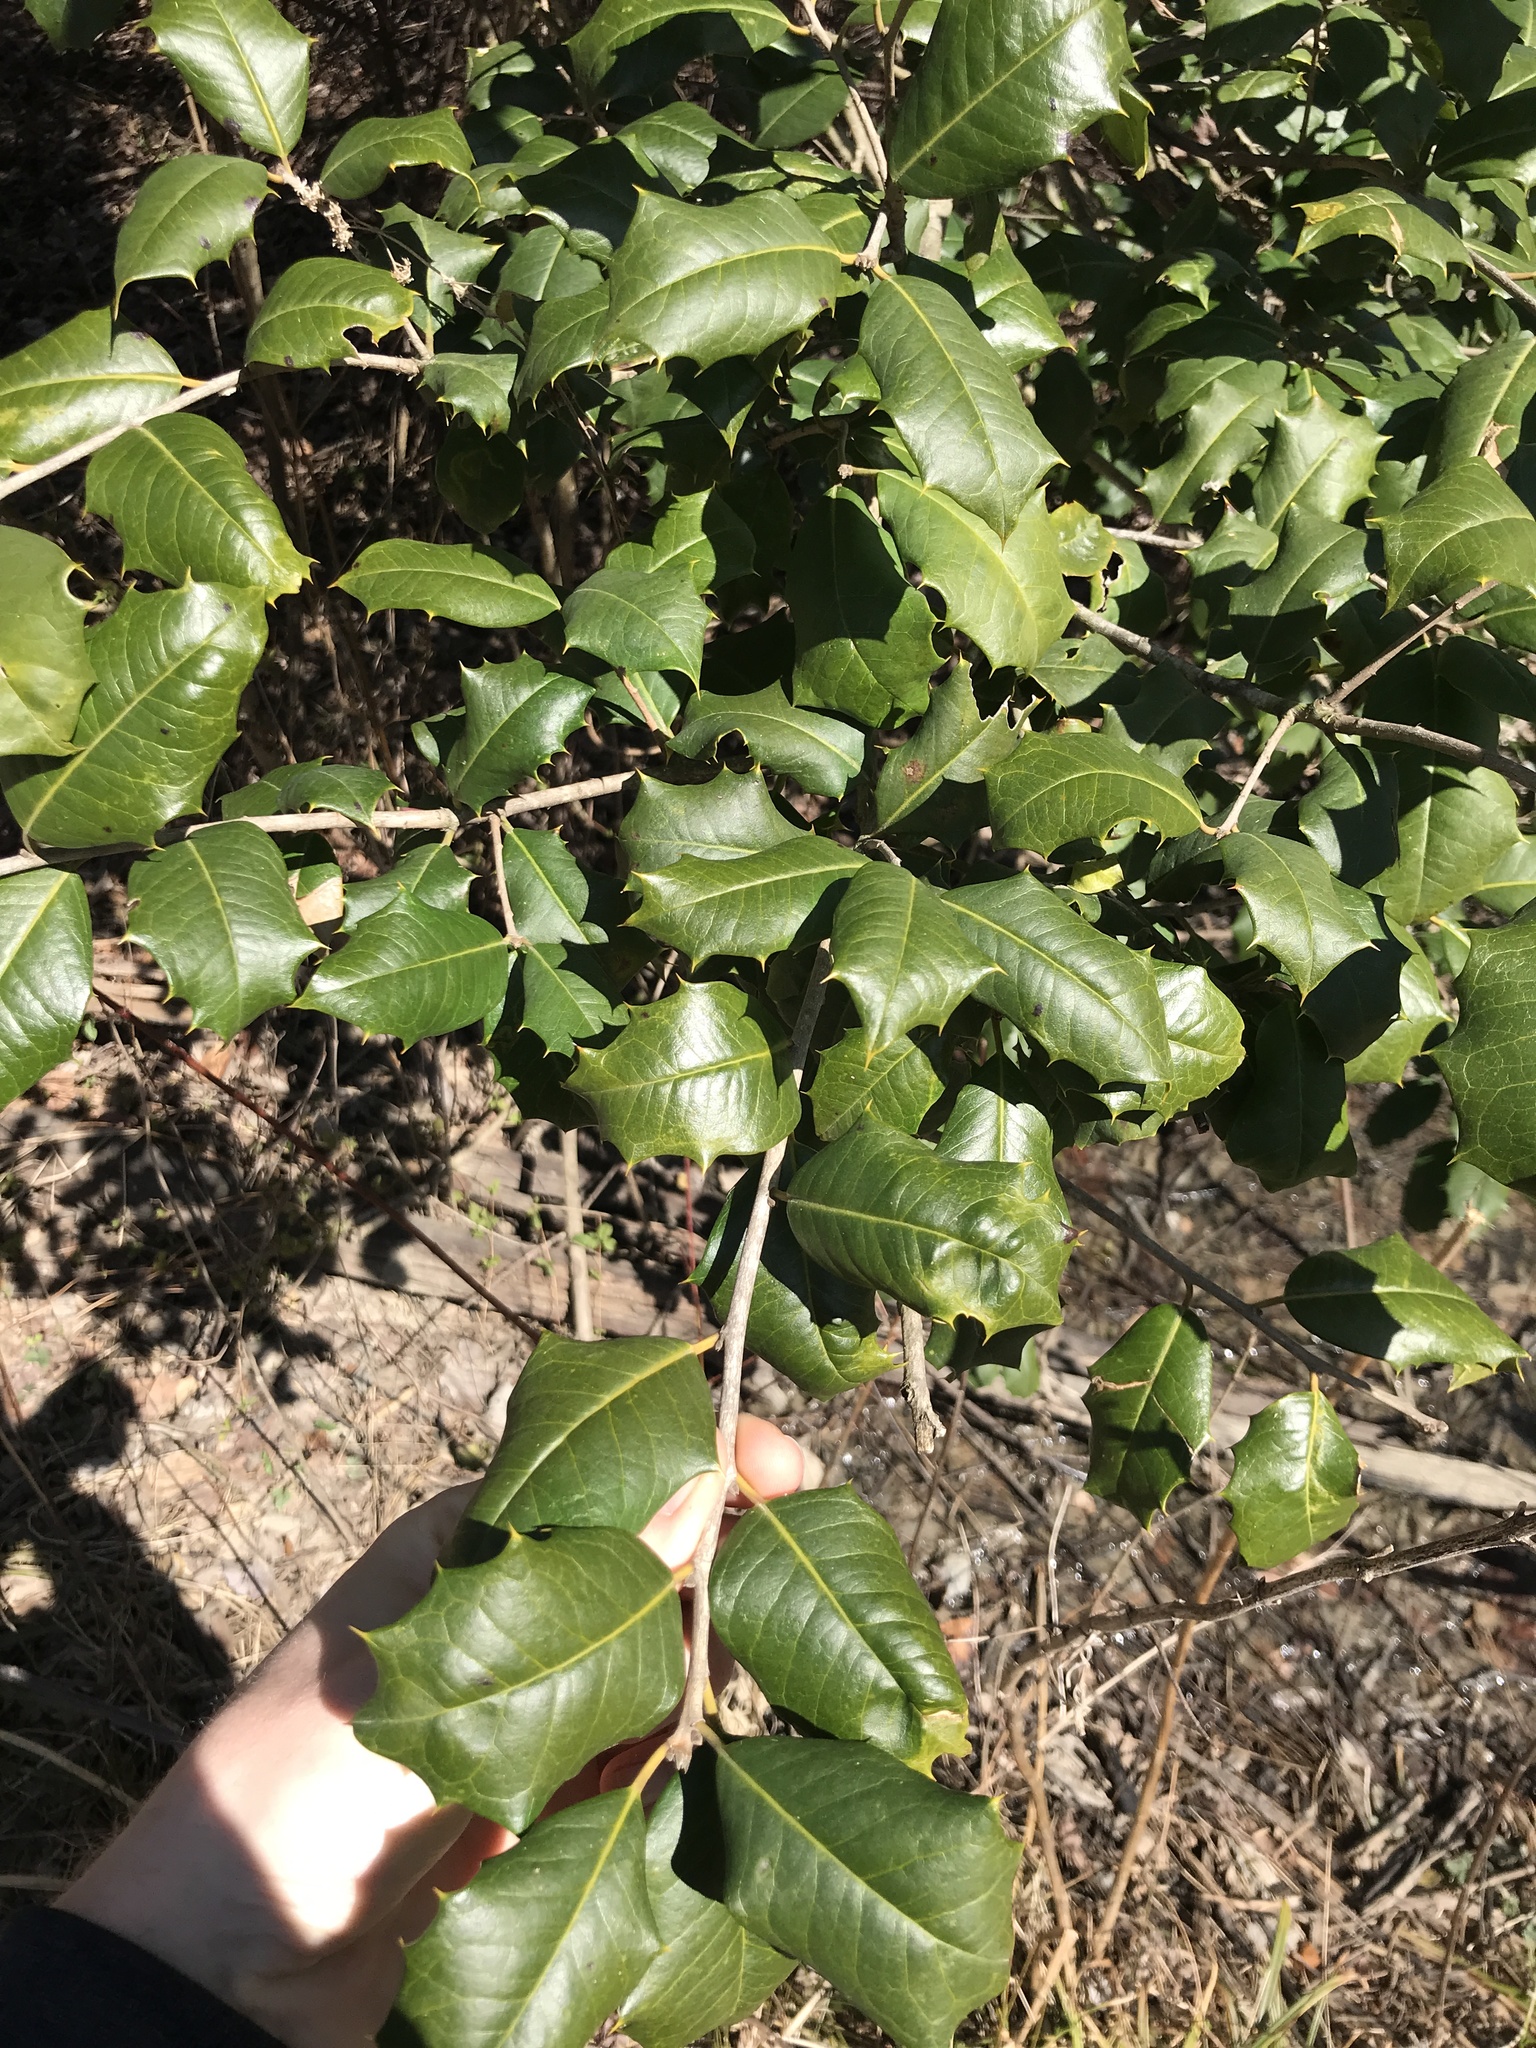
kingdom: Plantae
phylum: Tracheophyta
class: Magnoliopsida
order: Aquifoliales
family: Aquifoliaceae
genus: Ilex
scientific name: Ilex opaca
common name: American holly
